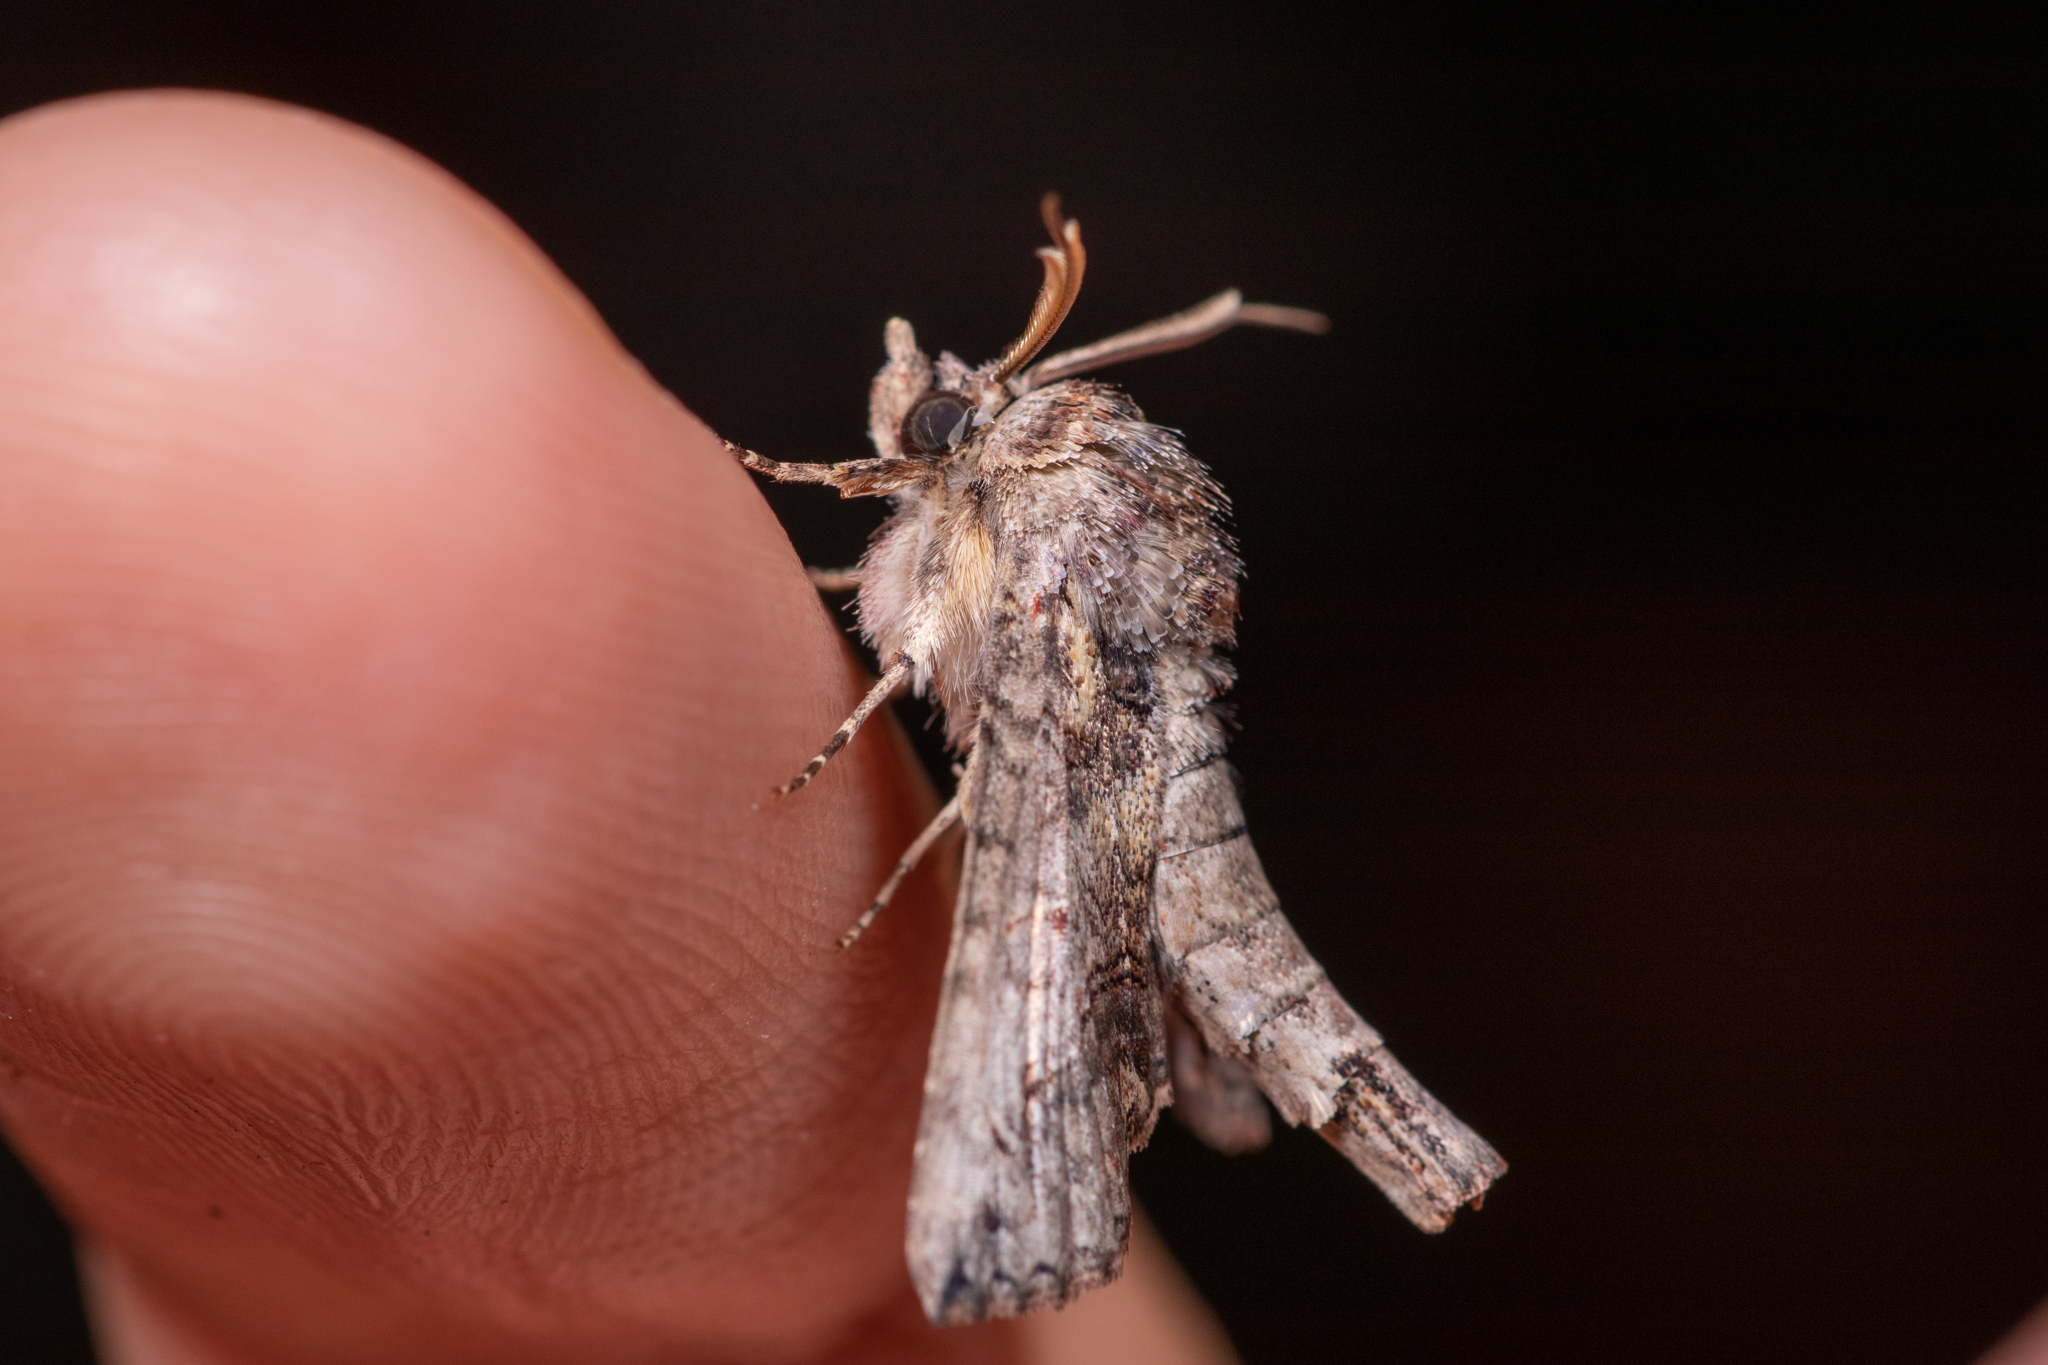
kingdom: Animalia
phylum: Arthropoda
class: Insecta
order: Lepidoptera
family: Euteliidae
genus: Paectes
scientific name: Paectes abrostoloides
